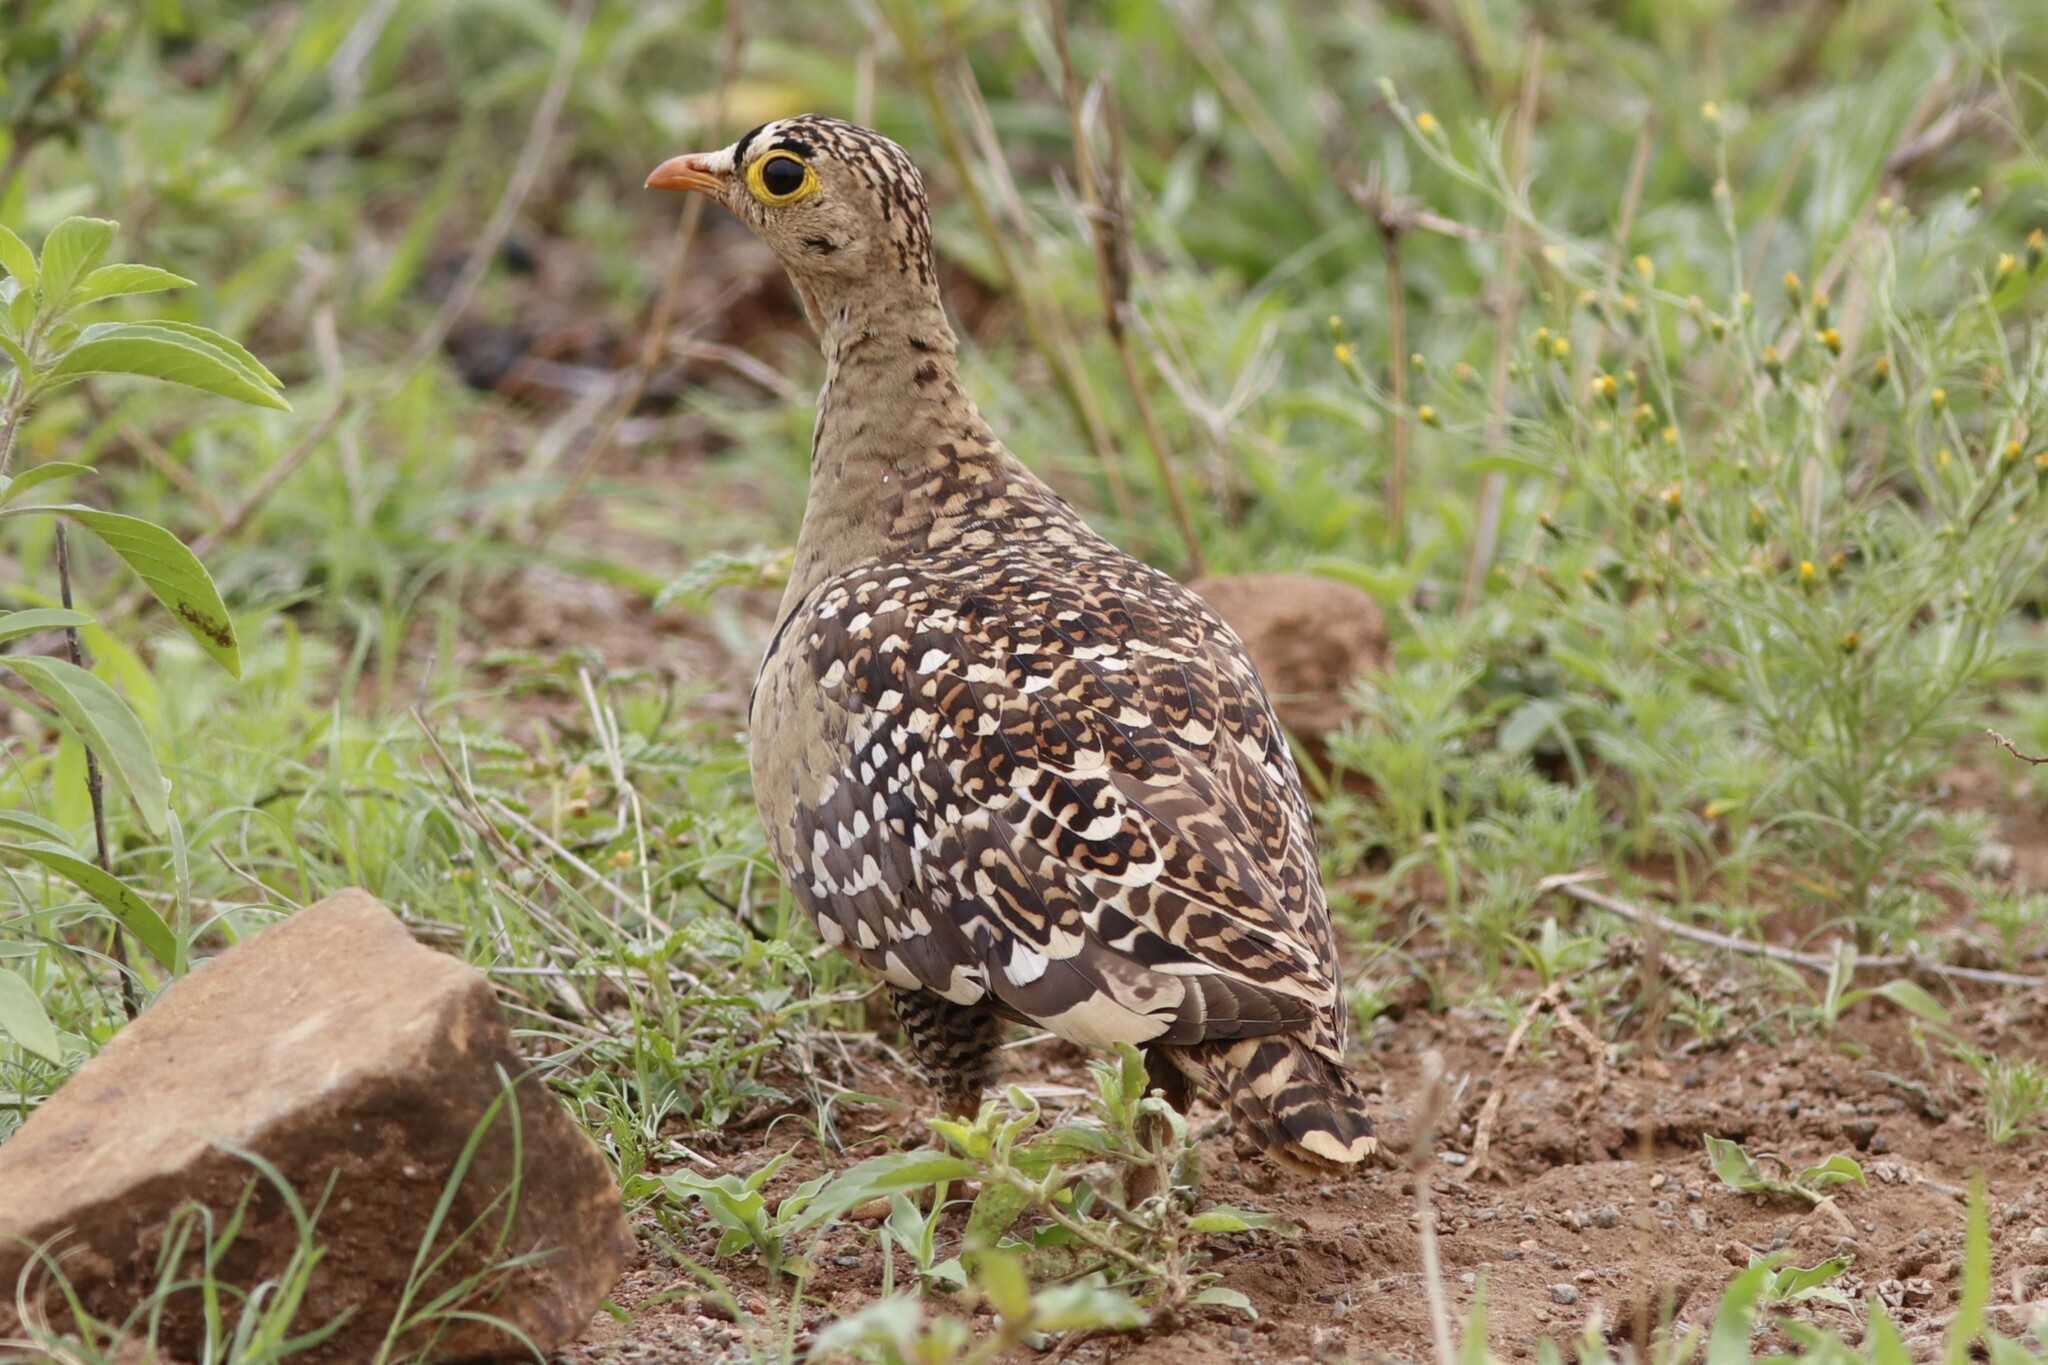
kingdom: Animalia
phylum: Chordata
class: Aves
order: Pteroclidiformes
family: Pteroclididae
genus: Pterocles
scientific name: Pterocles bicinctus
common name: Double-banded sandgrouse
